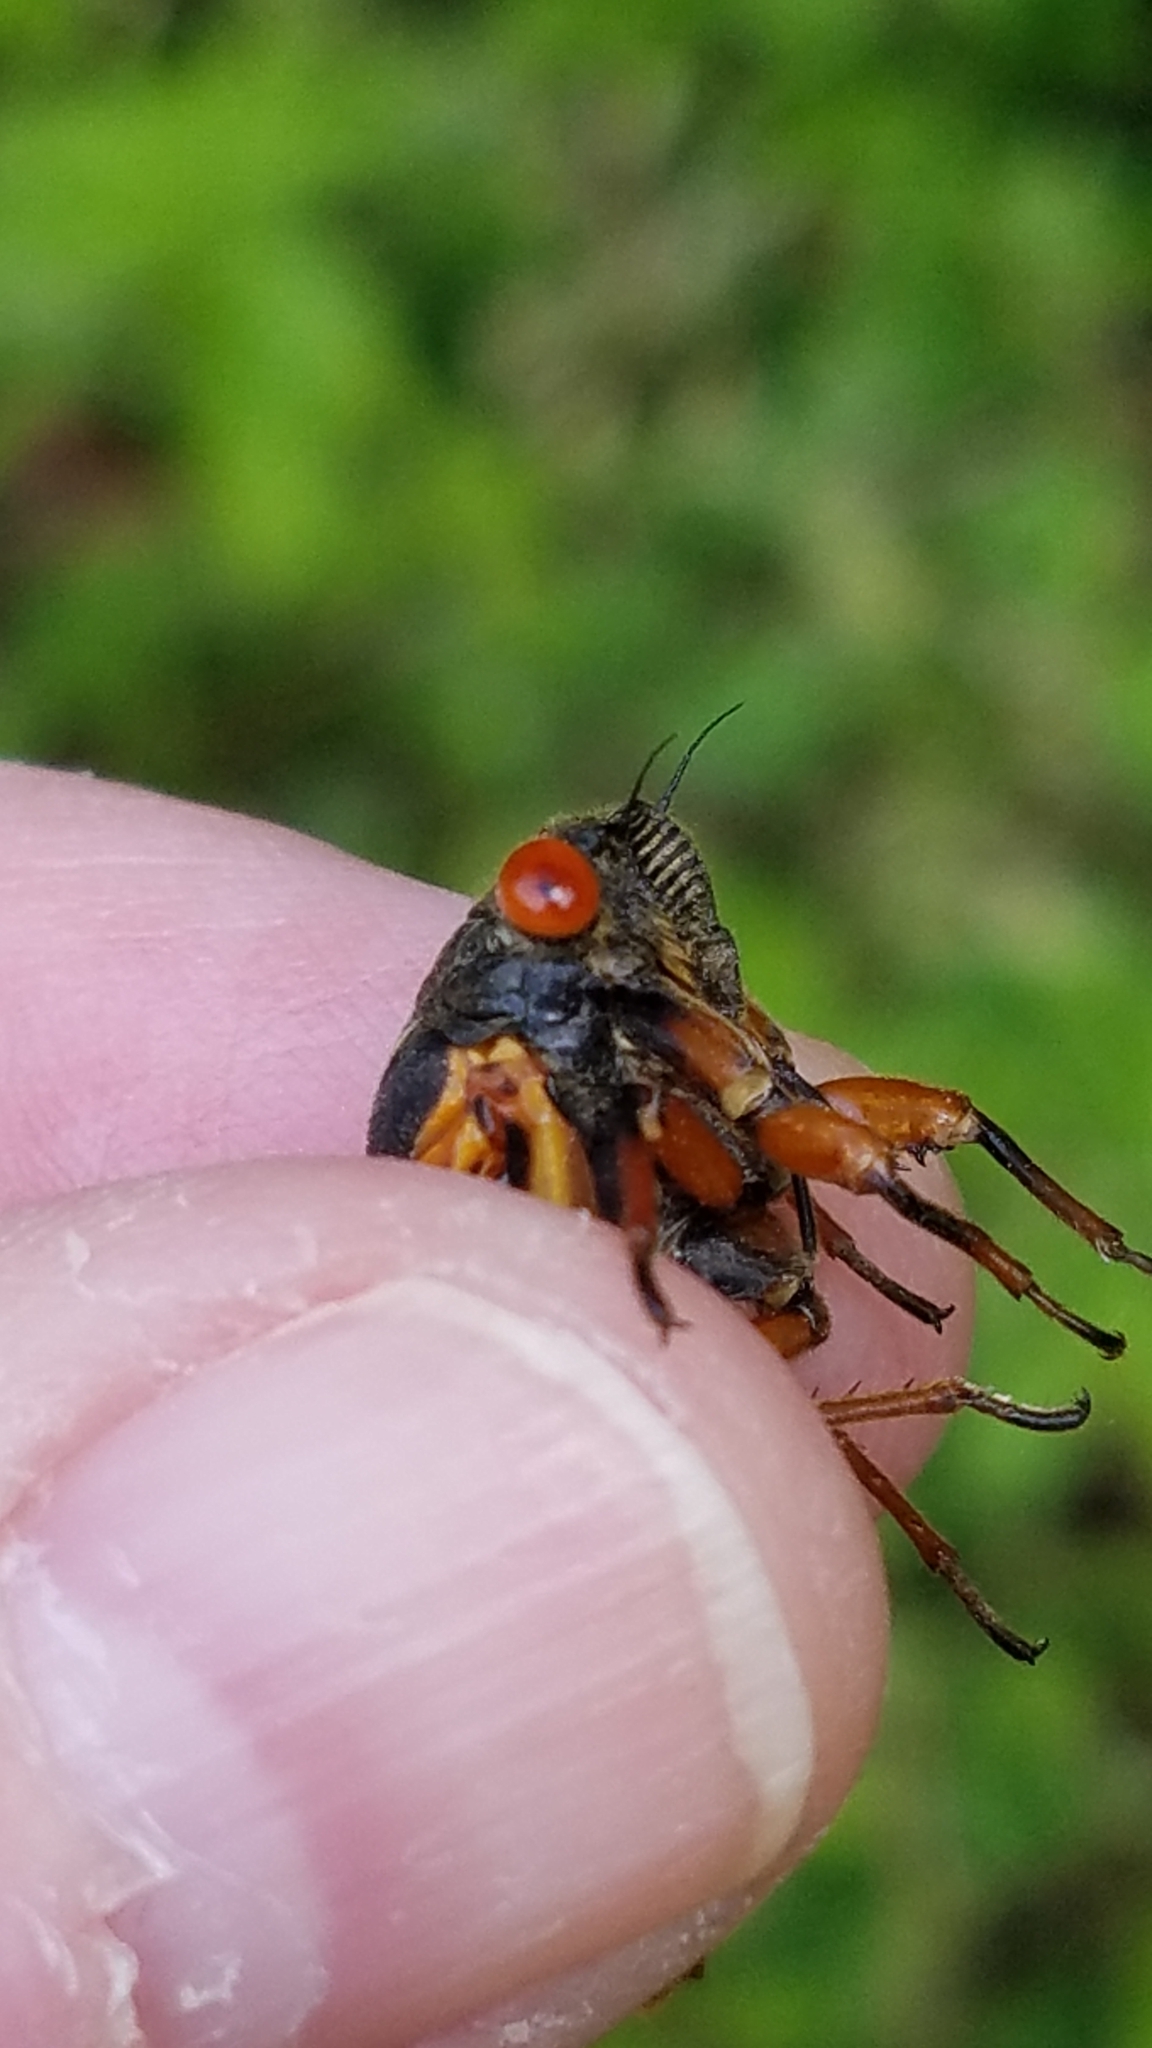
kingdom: Animalia
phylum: Arthropoda
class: Insecta
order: Hemiptera
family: Cicadidae
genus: Magicicada
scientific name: Magicicada cassini
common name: Cassin's 17-year cicada
